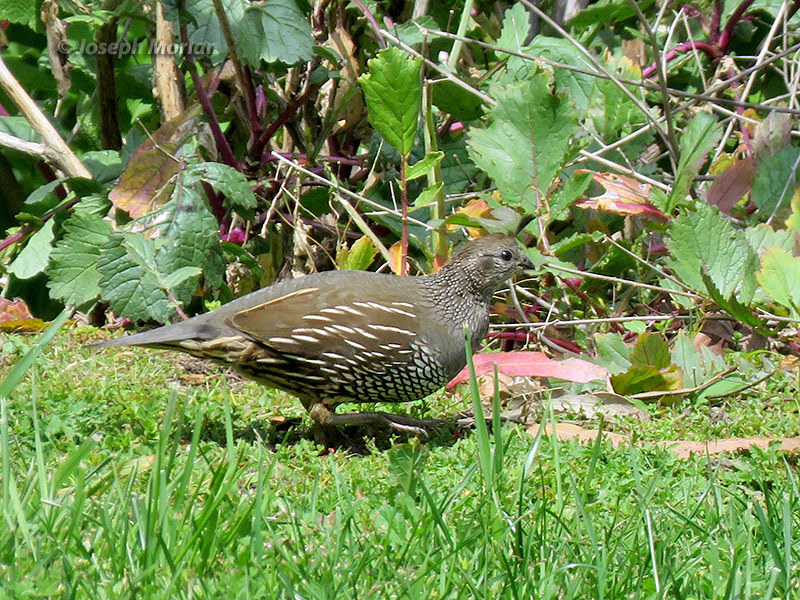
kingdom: Animalia
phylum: Chordata
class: Aves
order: Galliformes
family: Odontophoridae
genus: Callipepla
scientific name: Callipepla californica
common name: California quail
